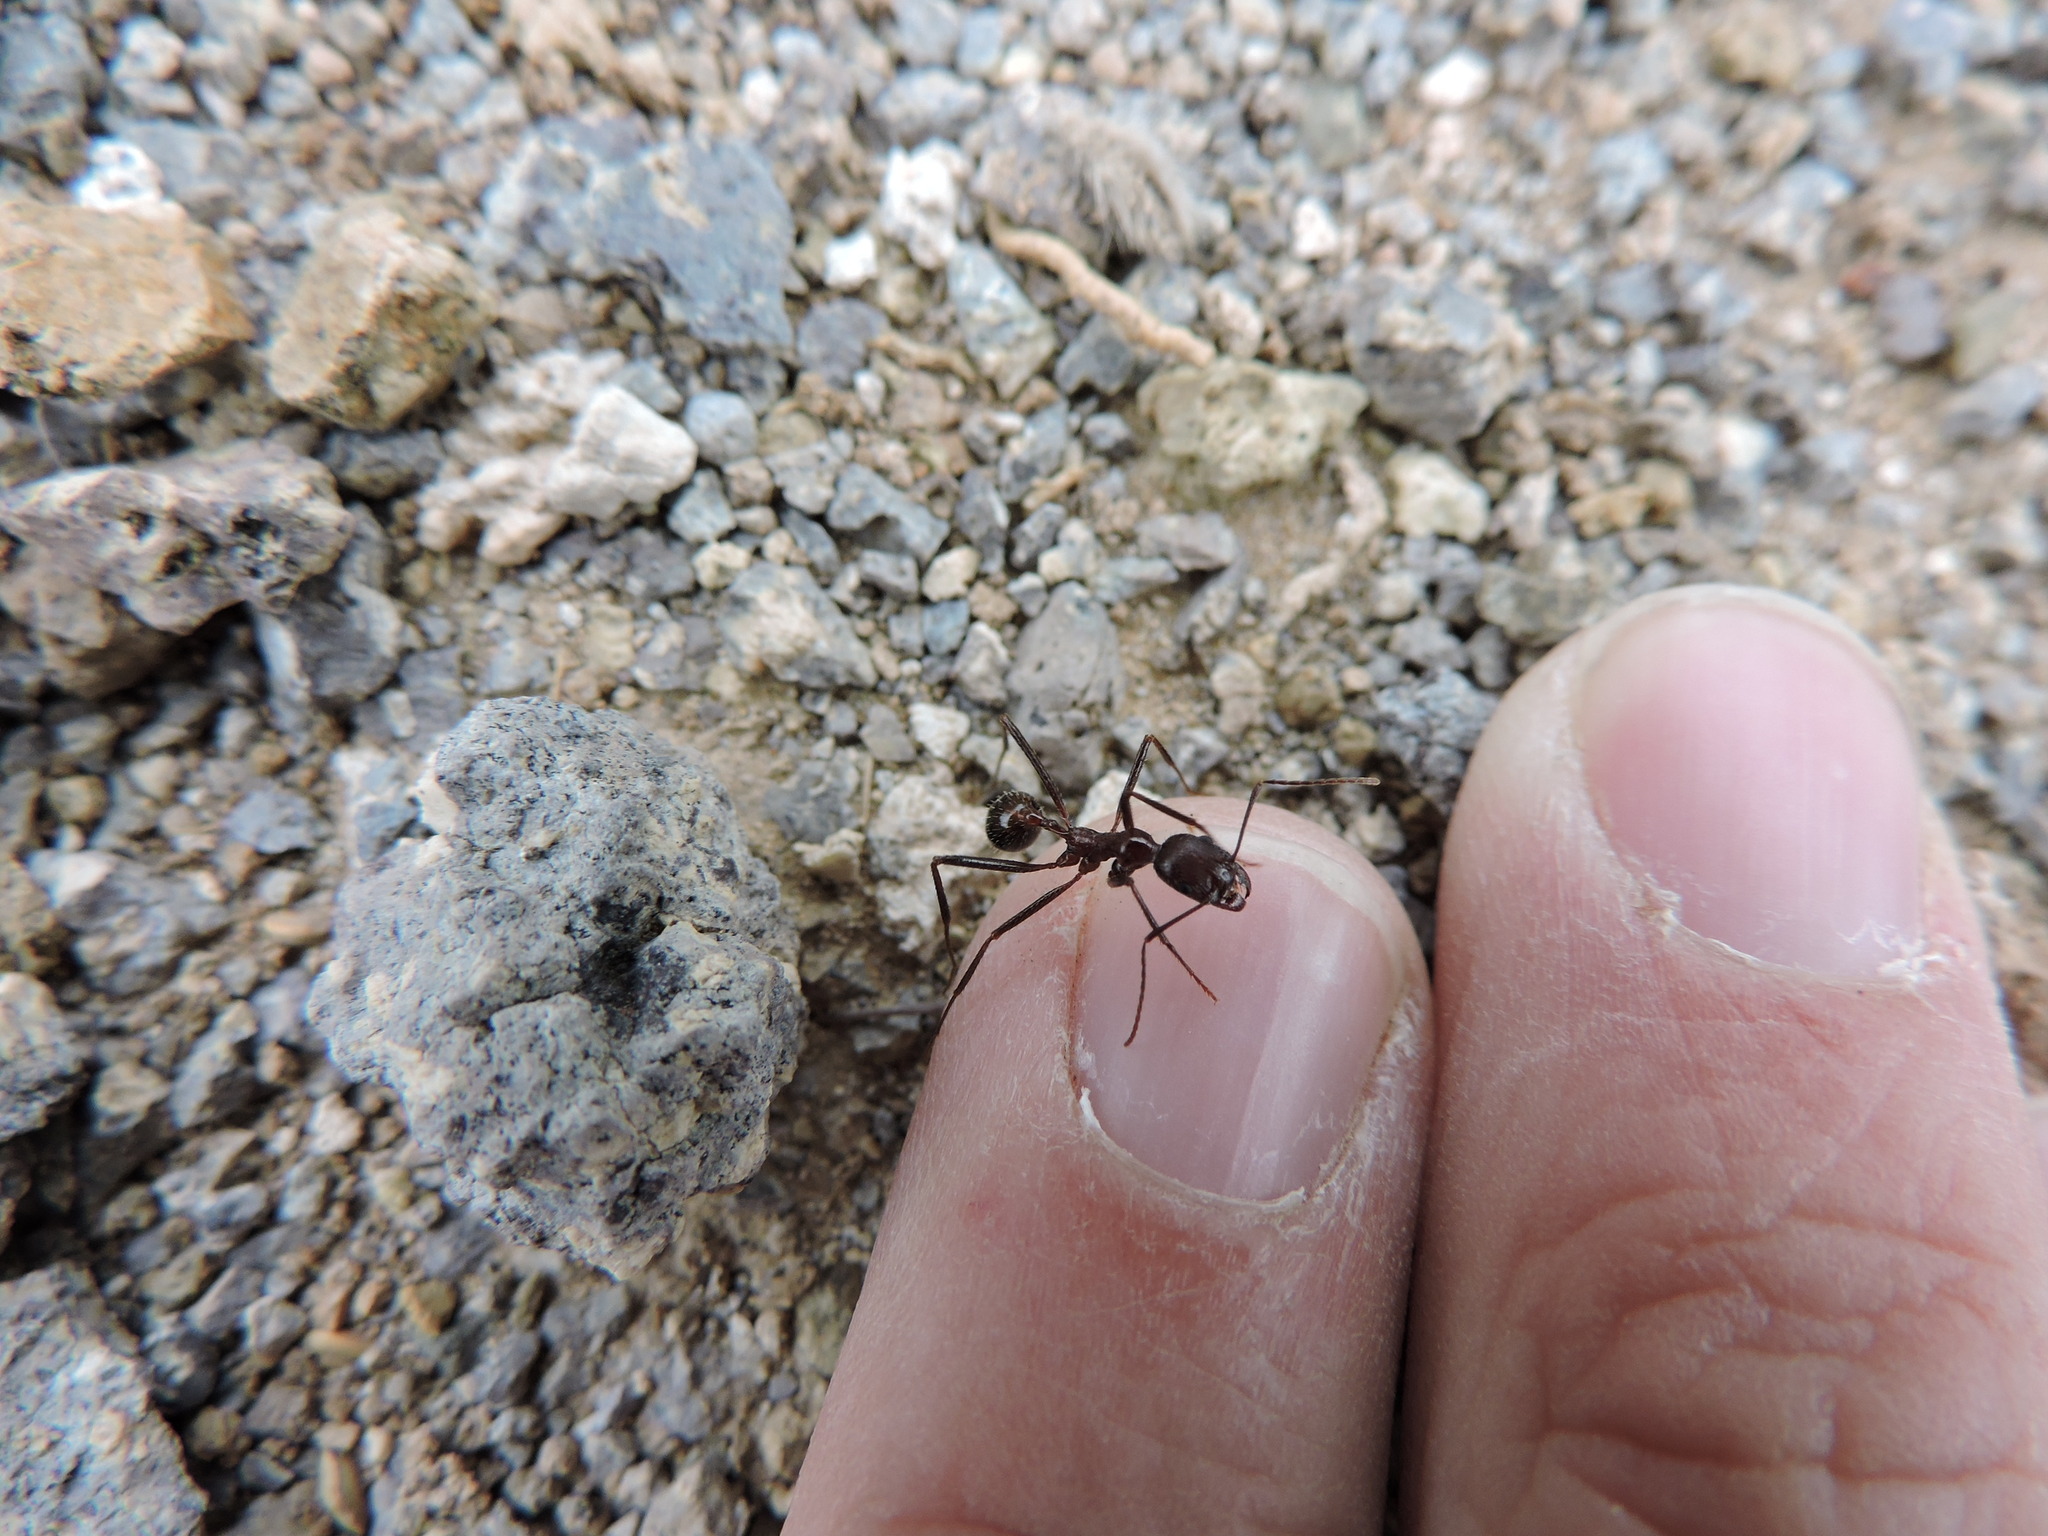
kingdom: Animalia
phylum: Arthropoda
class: Insecta
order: Hymenoptera
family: Formicidae
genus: Novomessor
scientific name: Novomessor cockerelli
